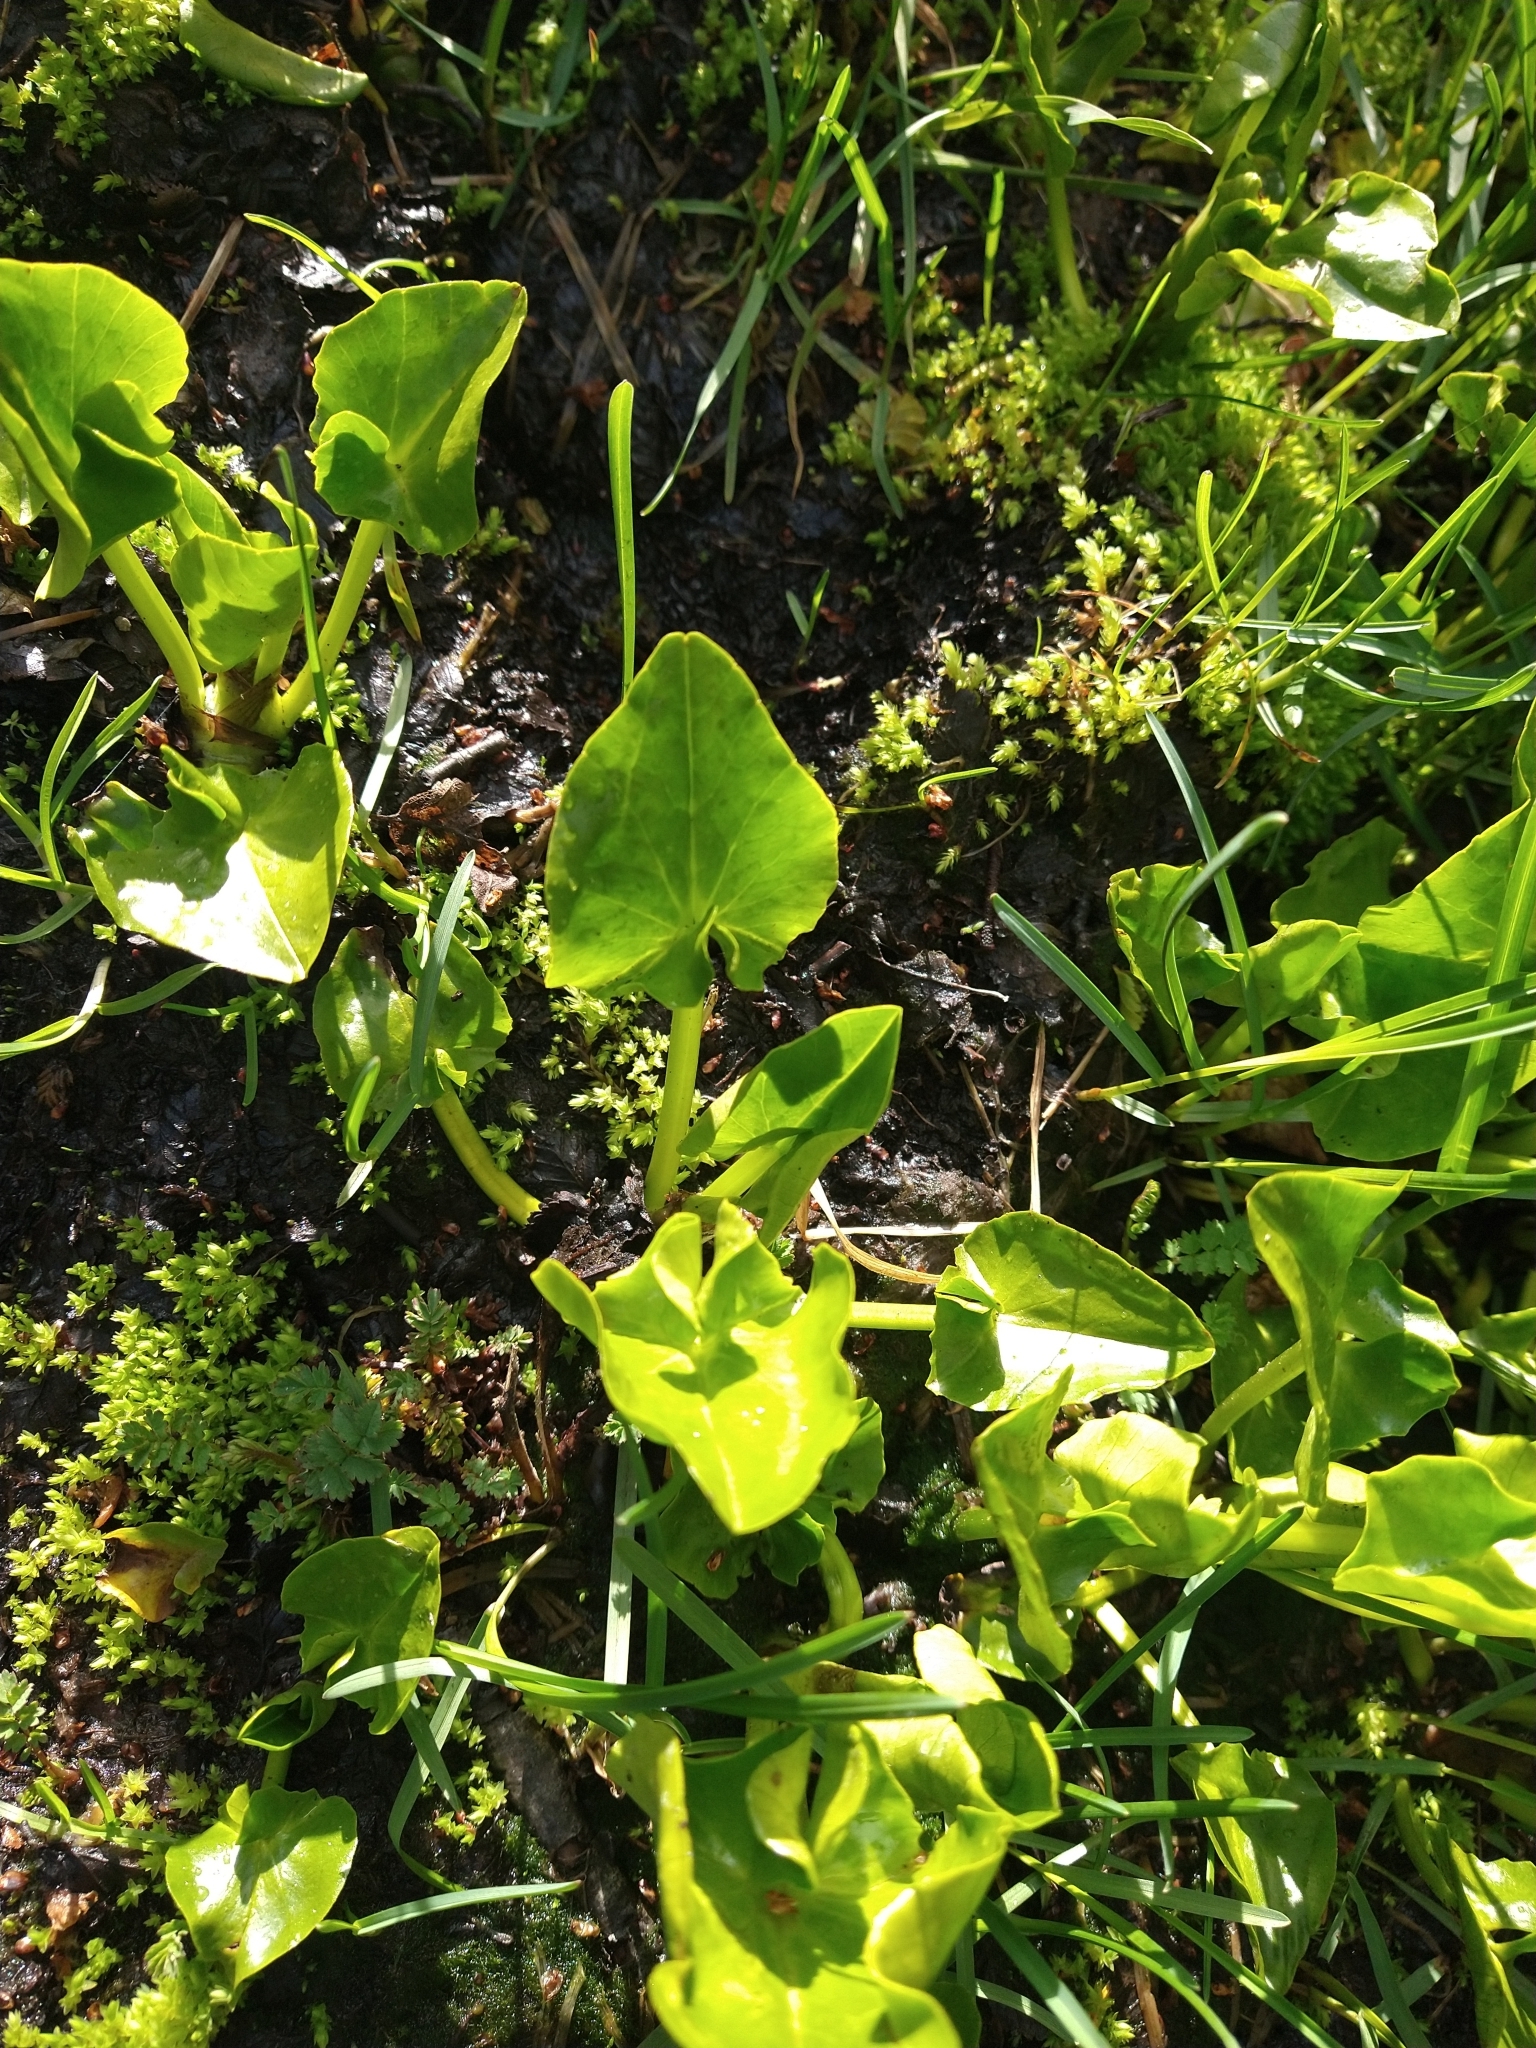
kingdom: Plantae
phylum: Tracheophyta
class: Magnoliopsida
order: Ranunculales
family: Ranunculaceae
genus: Caltha
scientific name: Caltha sagittata
